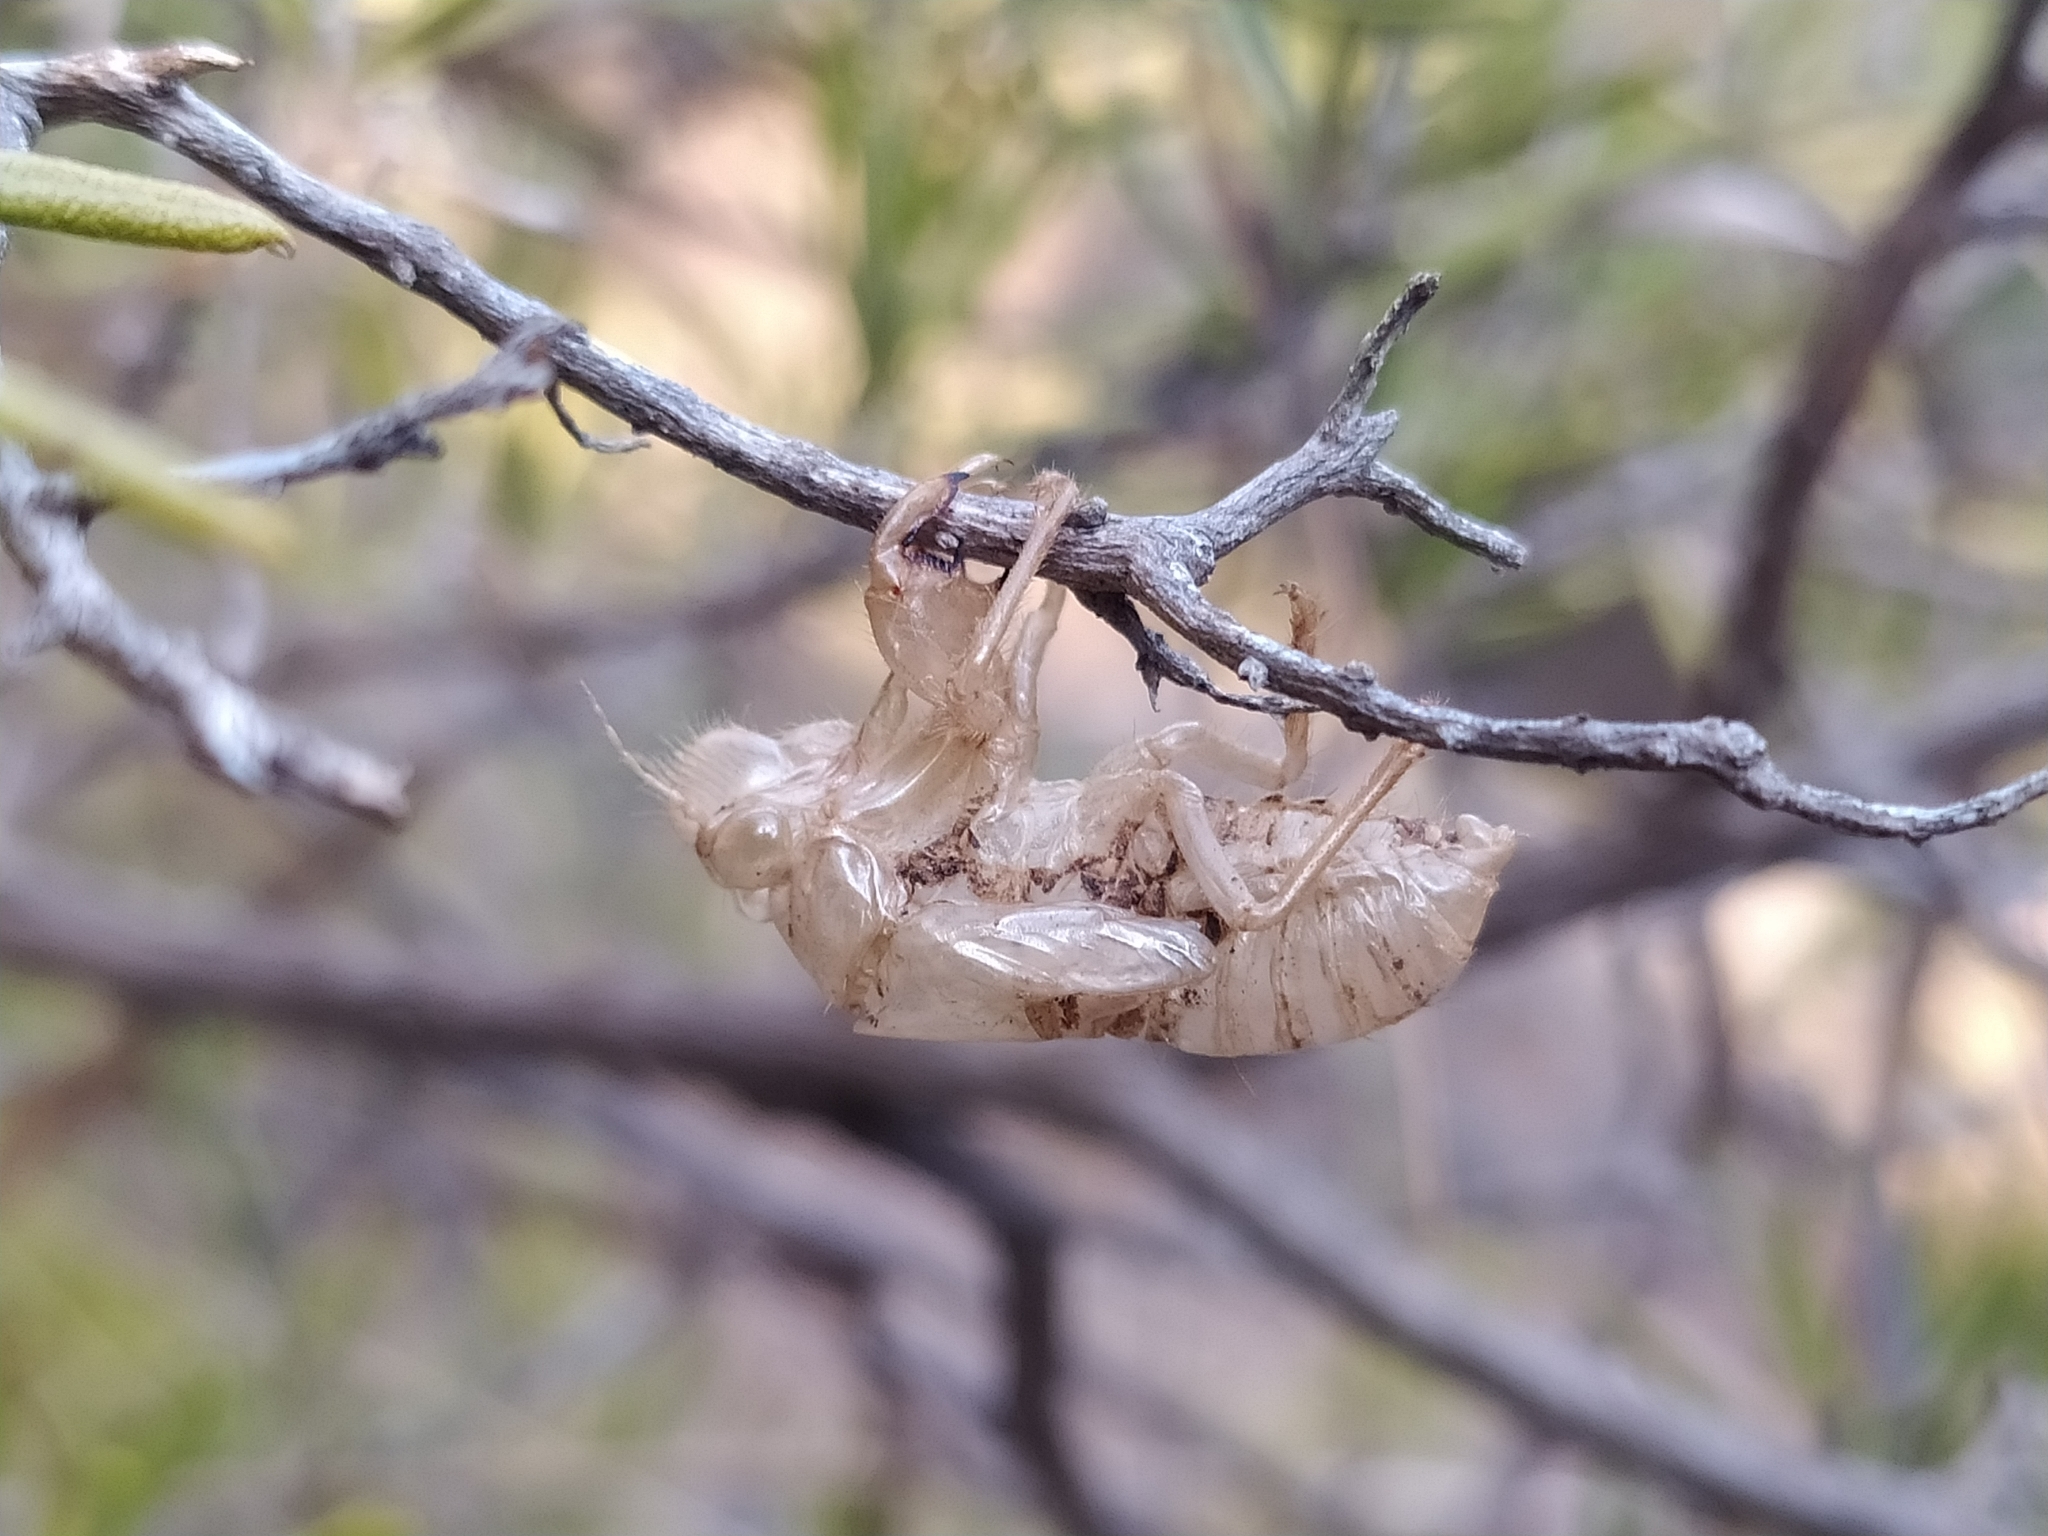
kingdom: Animalia
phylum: Arthropoda
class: Insecta
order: Hemiptera
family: Cicadidae
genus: Cicada
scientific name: Cicada orni
